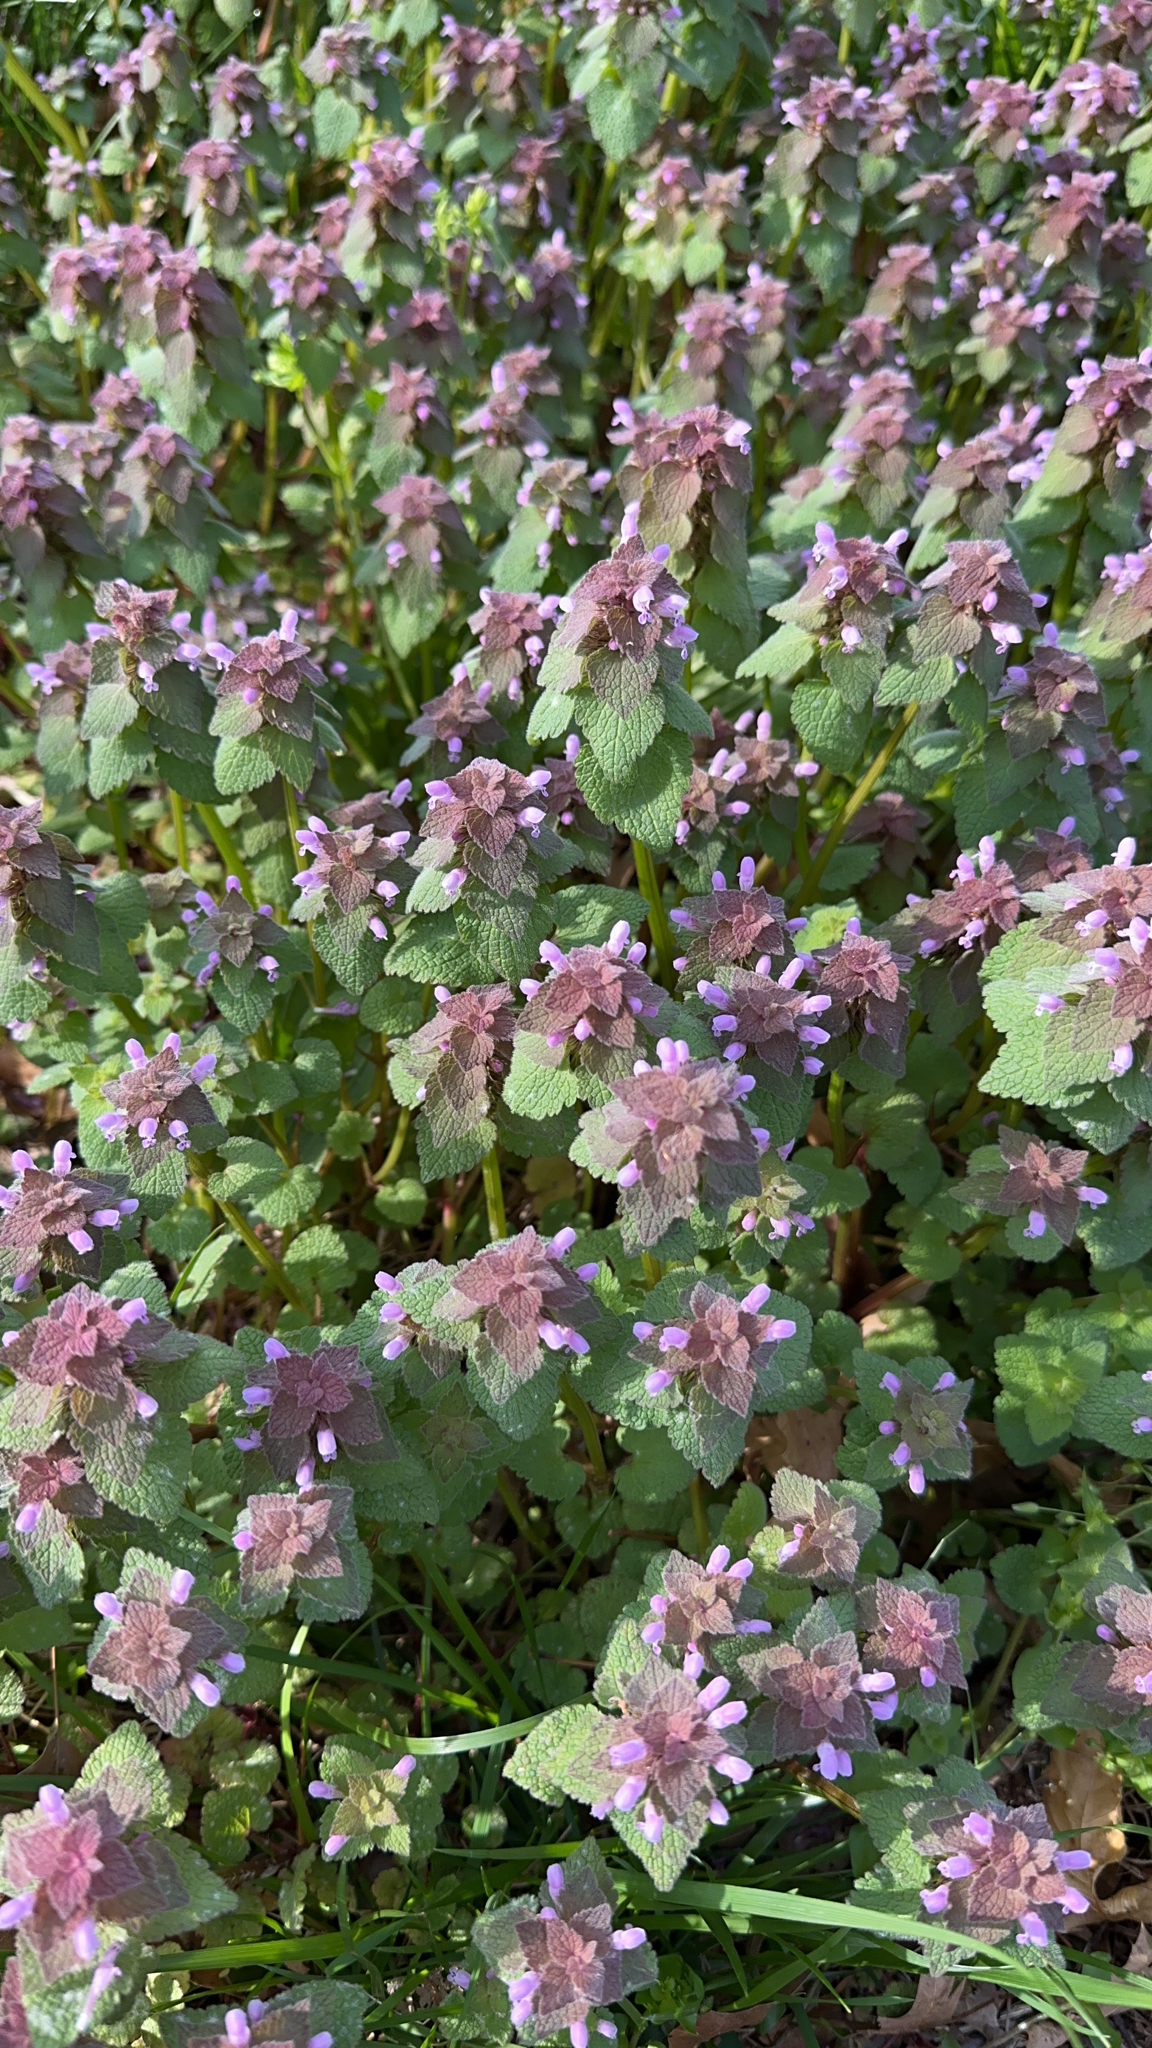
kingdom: Plantae
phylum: Tracheophyta
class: Magnoliopsida
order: Lamiales
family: Lamiaceae
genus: Lamium
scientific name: Lamium purpureum
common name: Red dead-nettle
